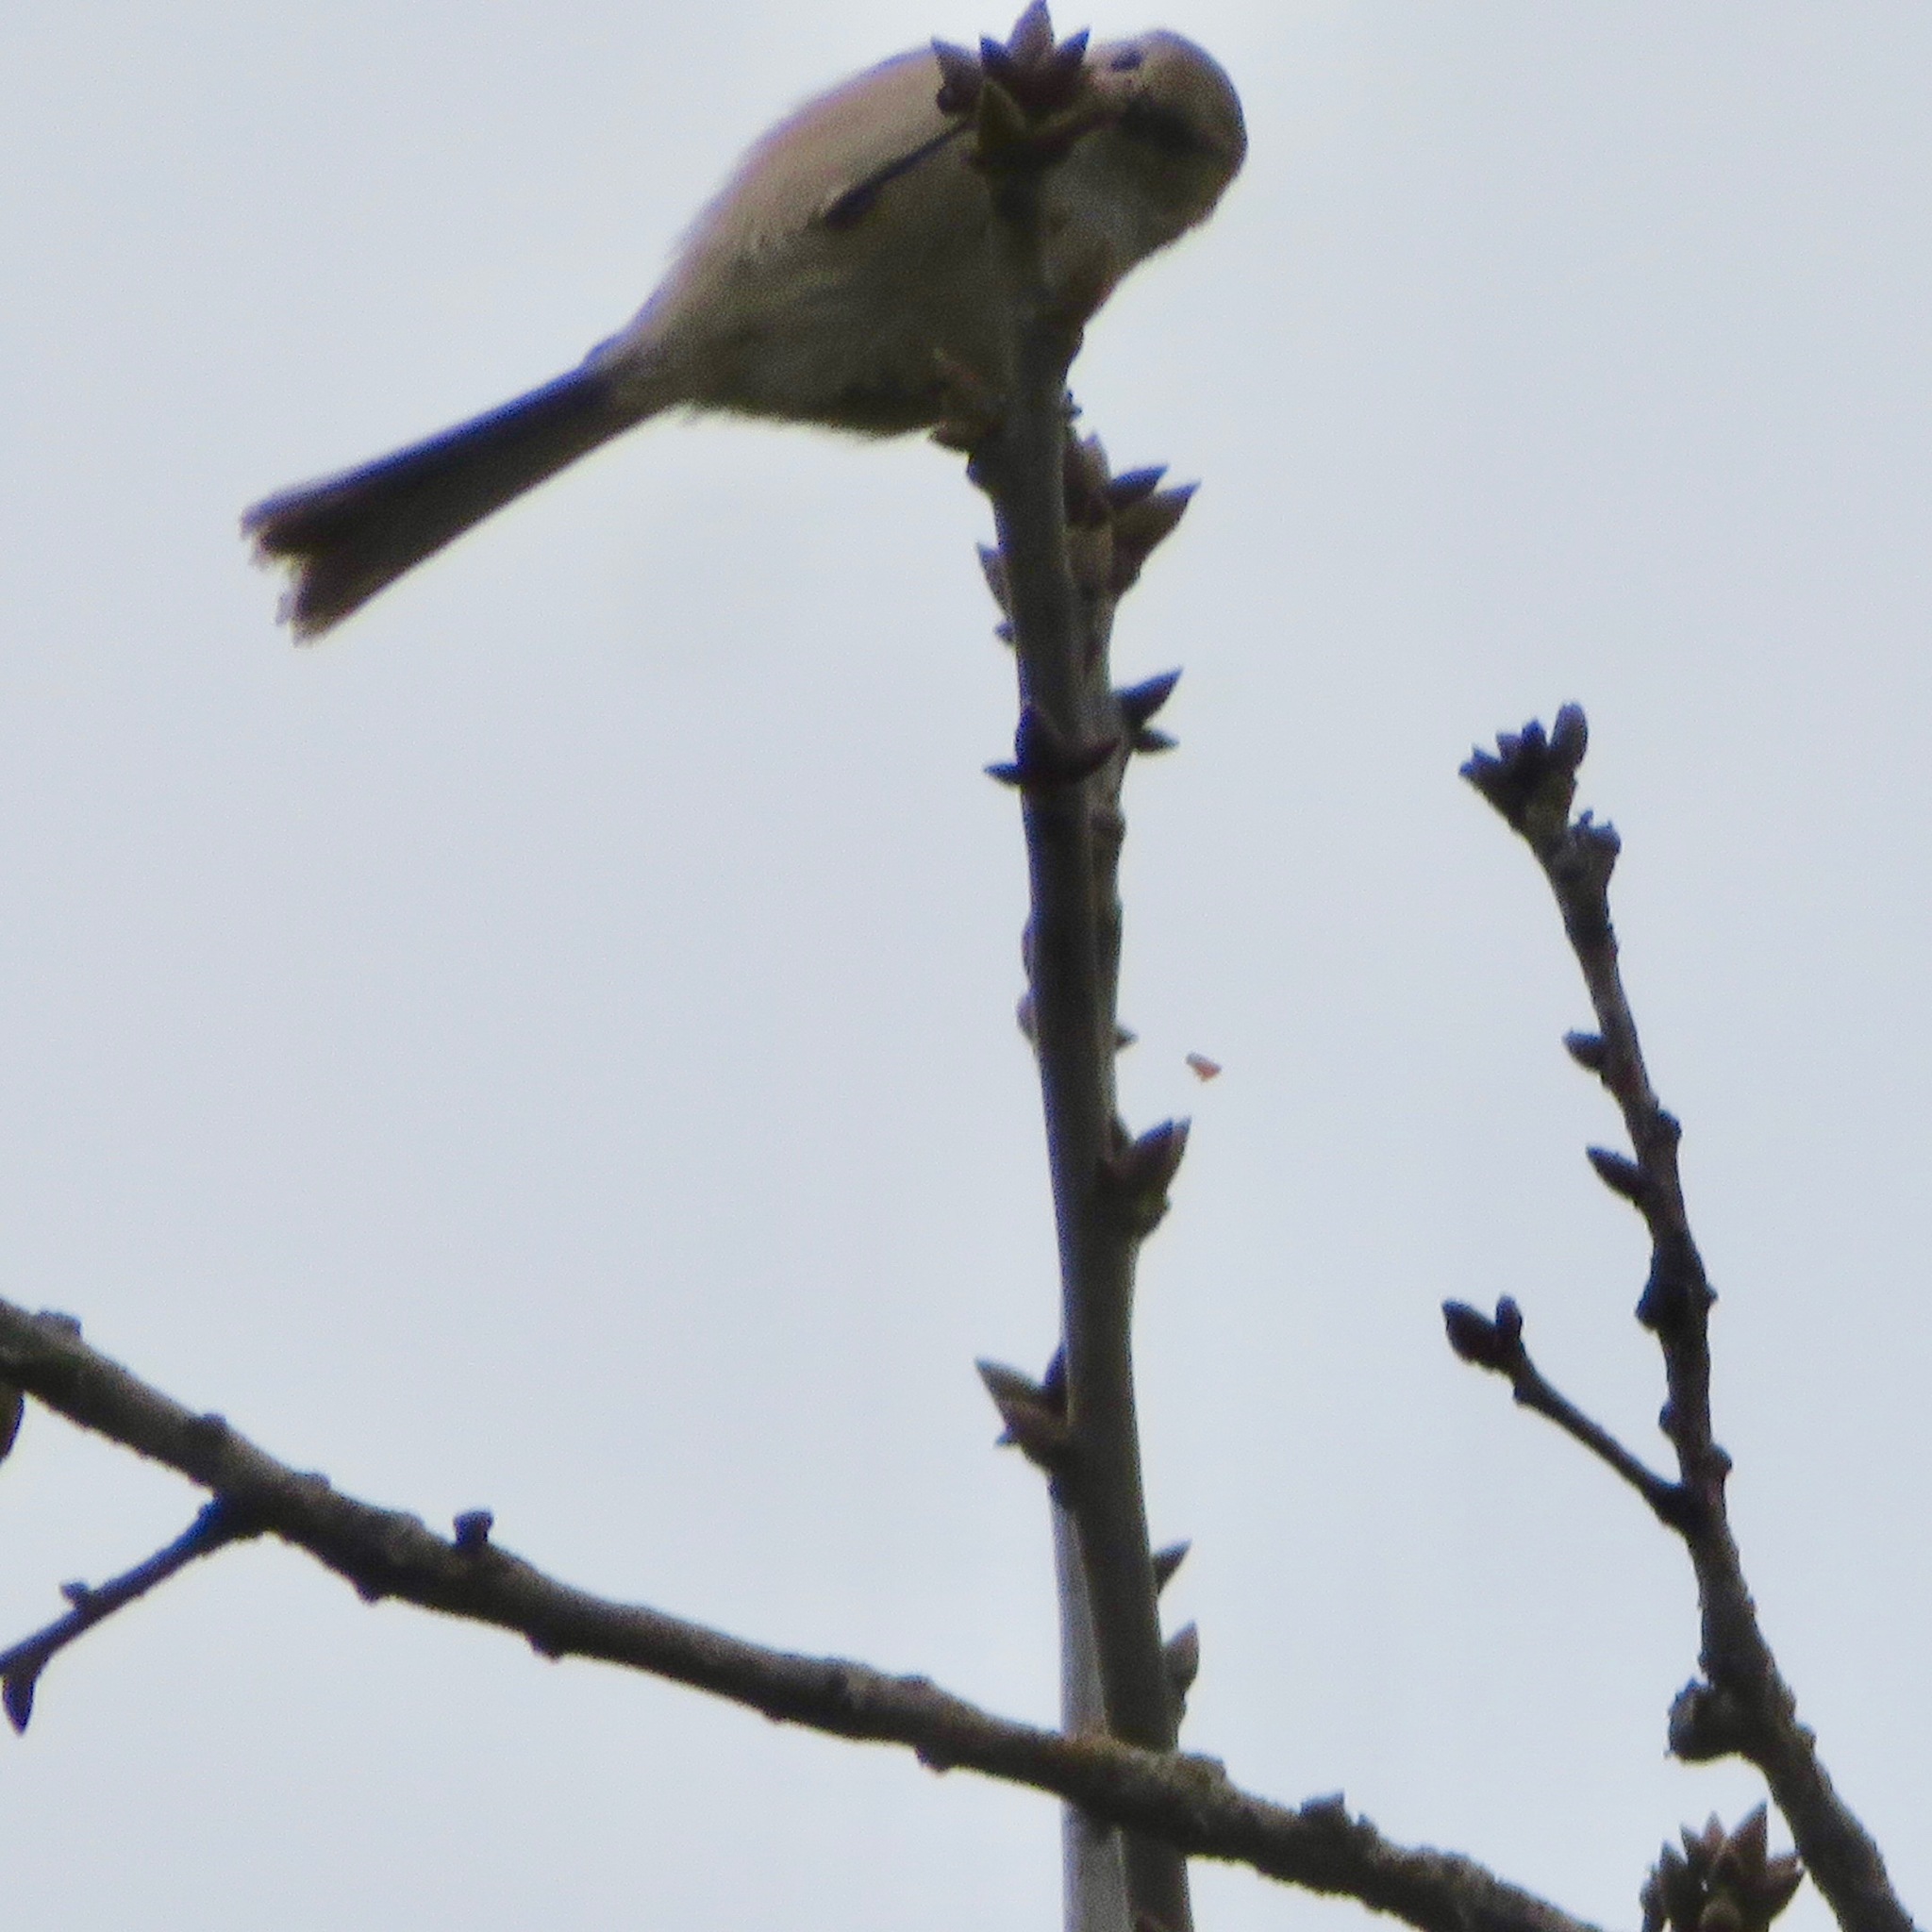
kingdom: Animalia
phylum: Chordata
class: Aves
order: Passeriformes
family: Aegithalidae
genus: Psaltriparus
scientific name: Psaltriparus minimus
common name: American bushtit
